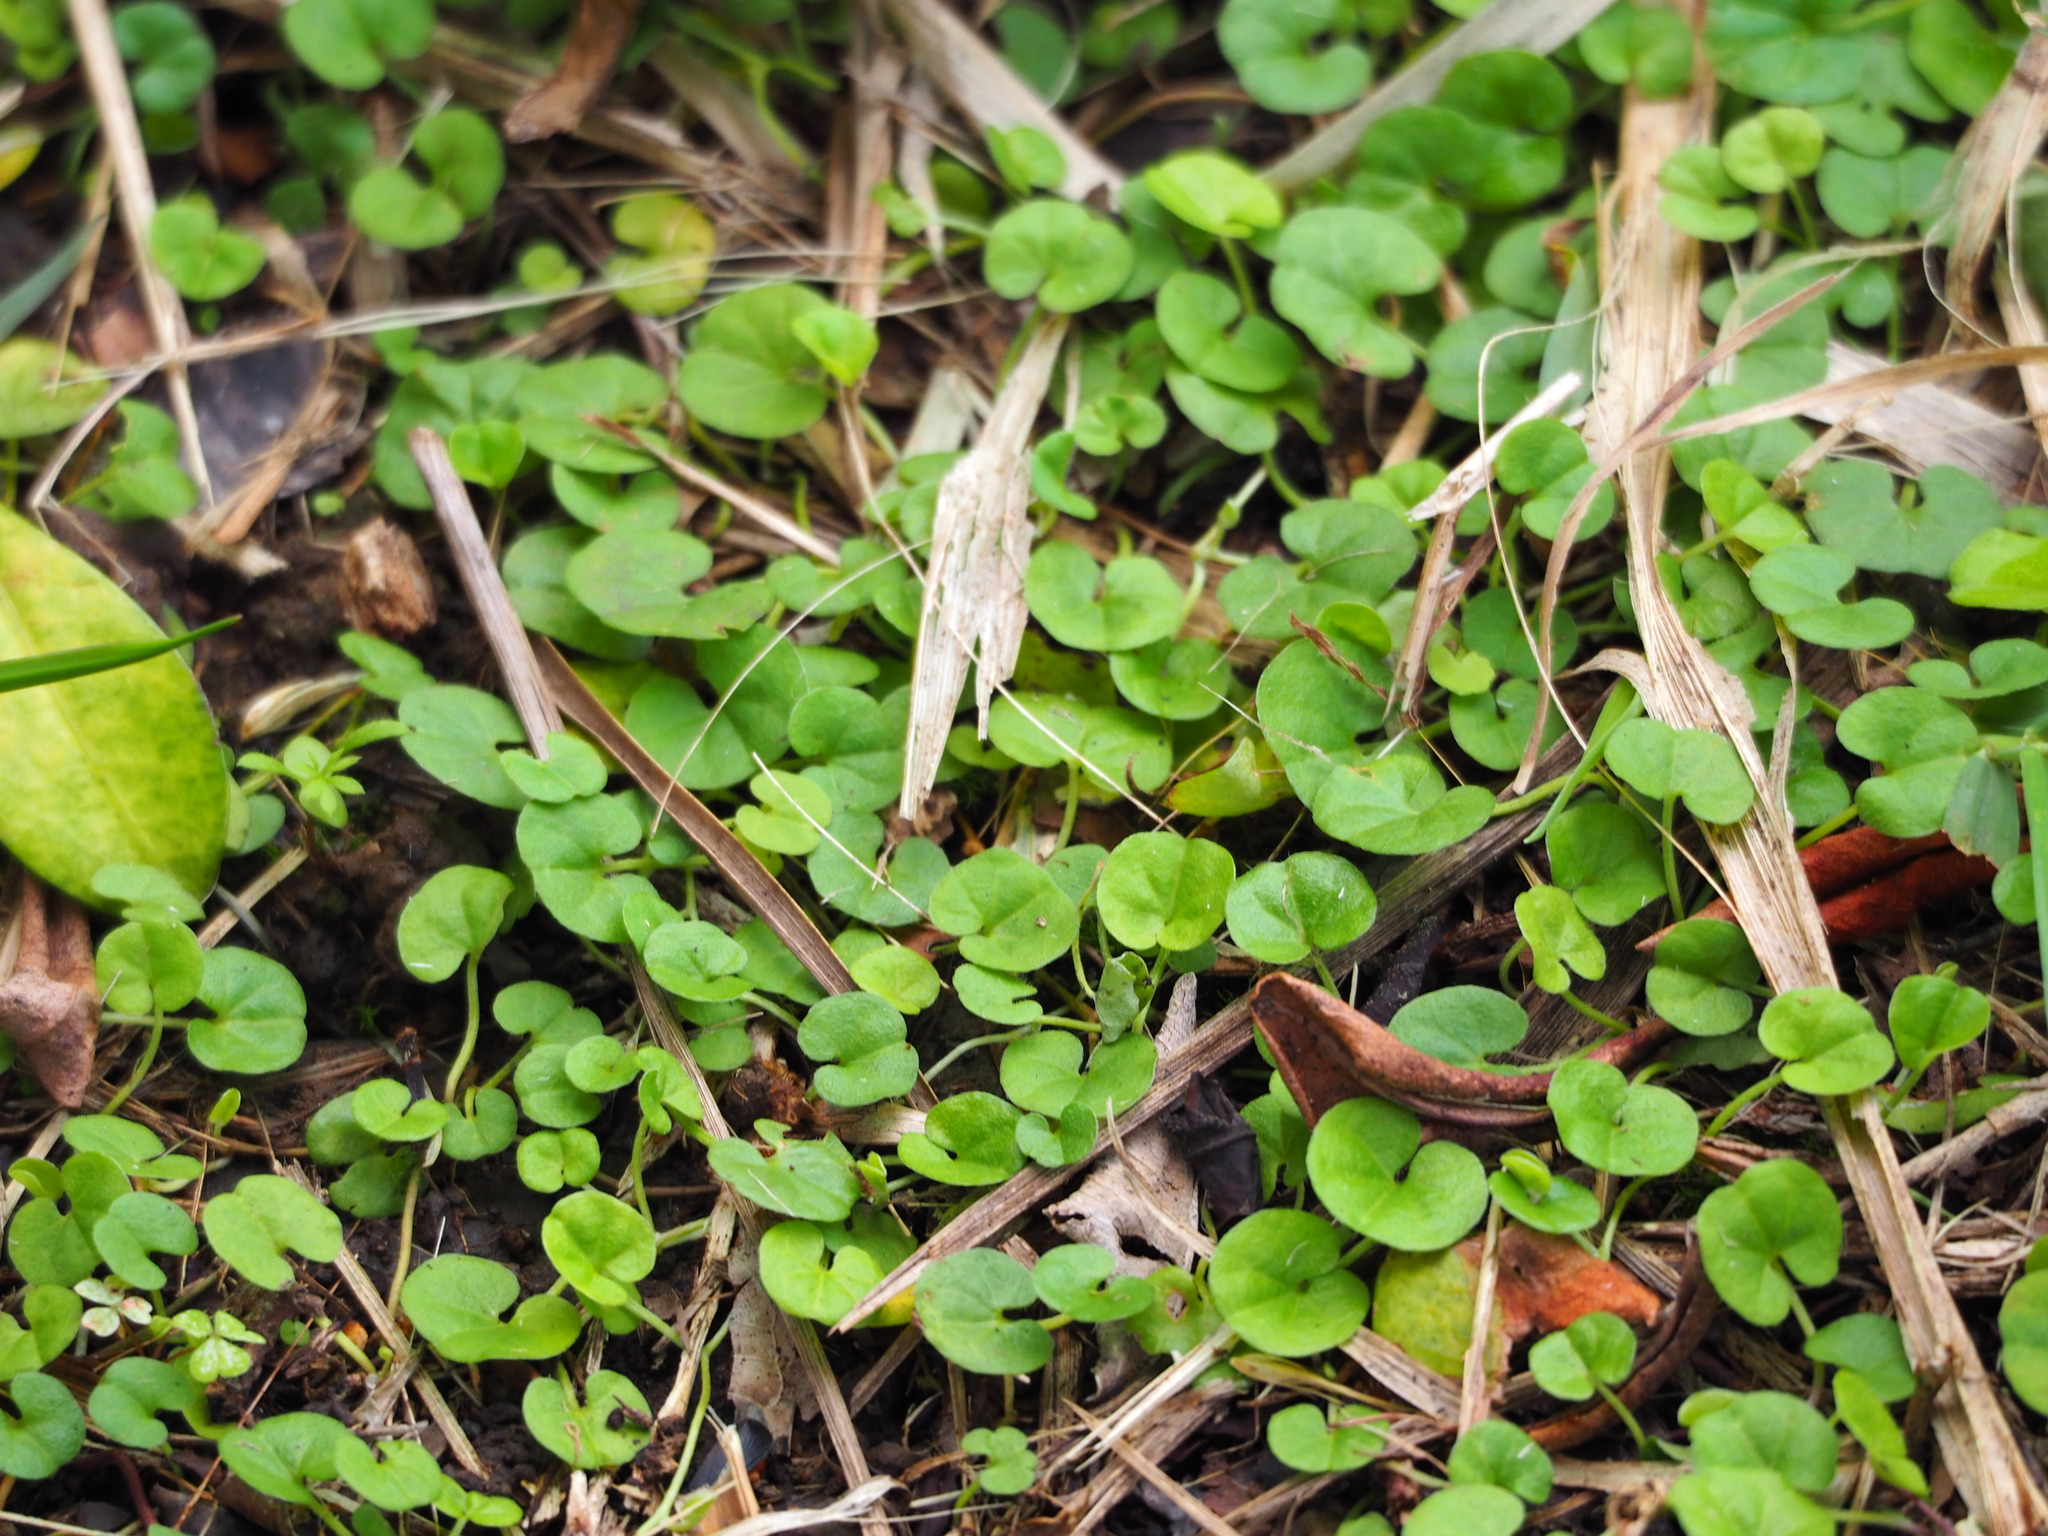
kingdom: Plantae
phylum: Tracheophyta
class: Magnoliopsida
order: Solanales
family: Convolvulaceae
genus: Dichondra
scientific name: Dichondra micrantha
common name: Kidneyweed
